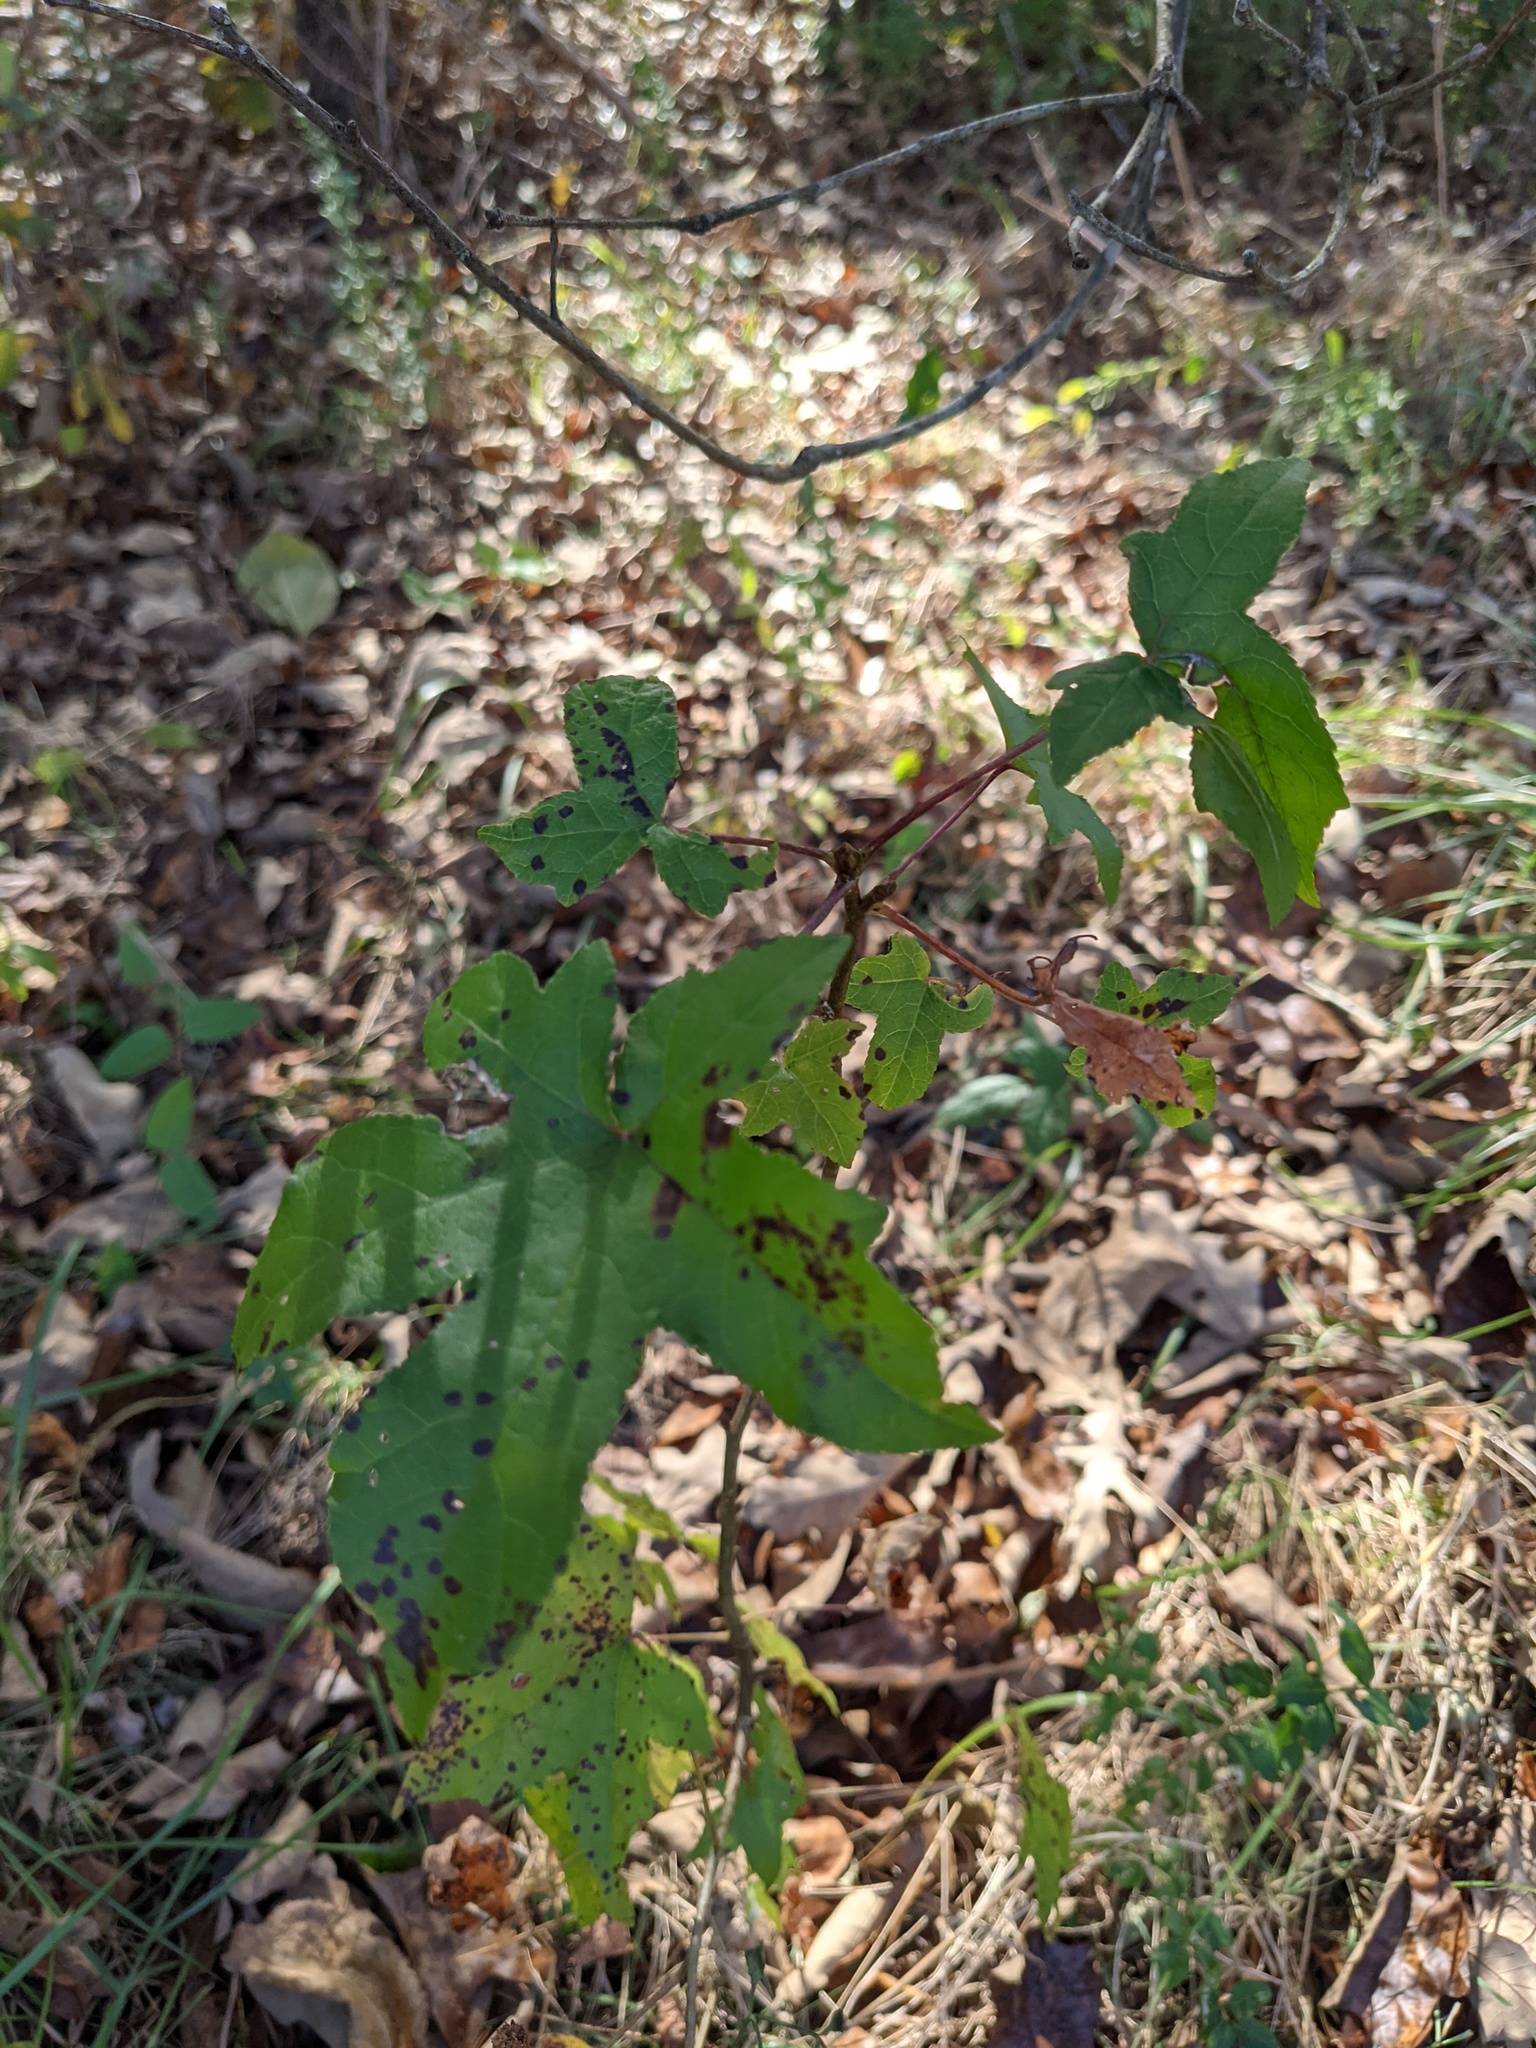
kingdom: Plantae
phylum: Tracheophyta
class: Magnoliopsida
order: Saxifragales
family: Altingiaceae
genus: Liquidambar
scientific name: Liquidambar styraciflua
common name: Sweet gum
